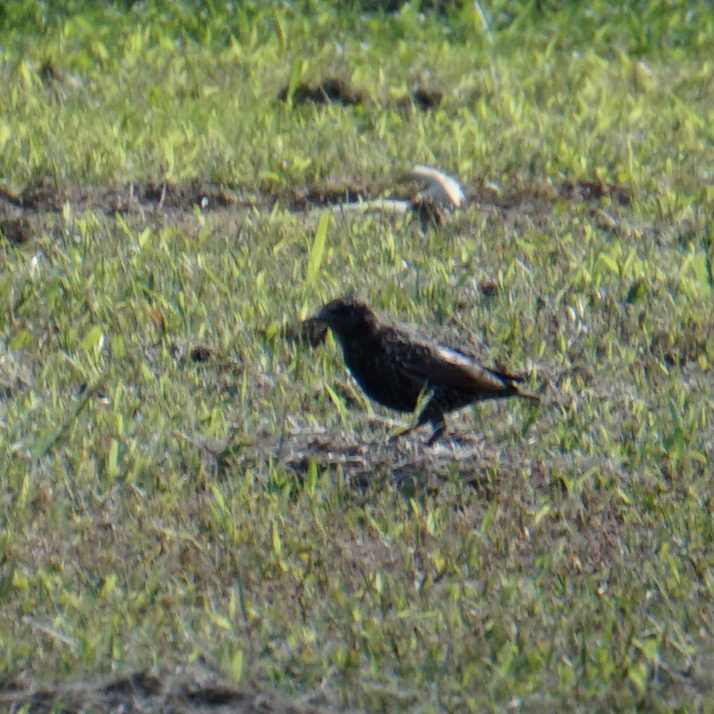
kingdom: Animalia
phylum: Chordata
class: Aves
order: Passeriformes
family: Sturnidae
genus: Sturnus
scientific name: Sturnus vulgaris
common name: Common starling
